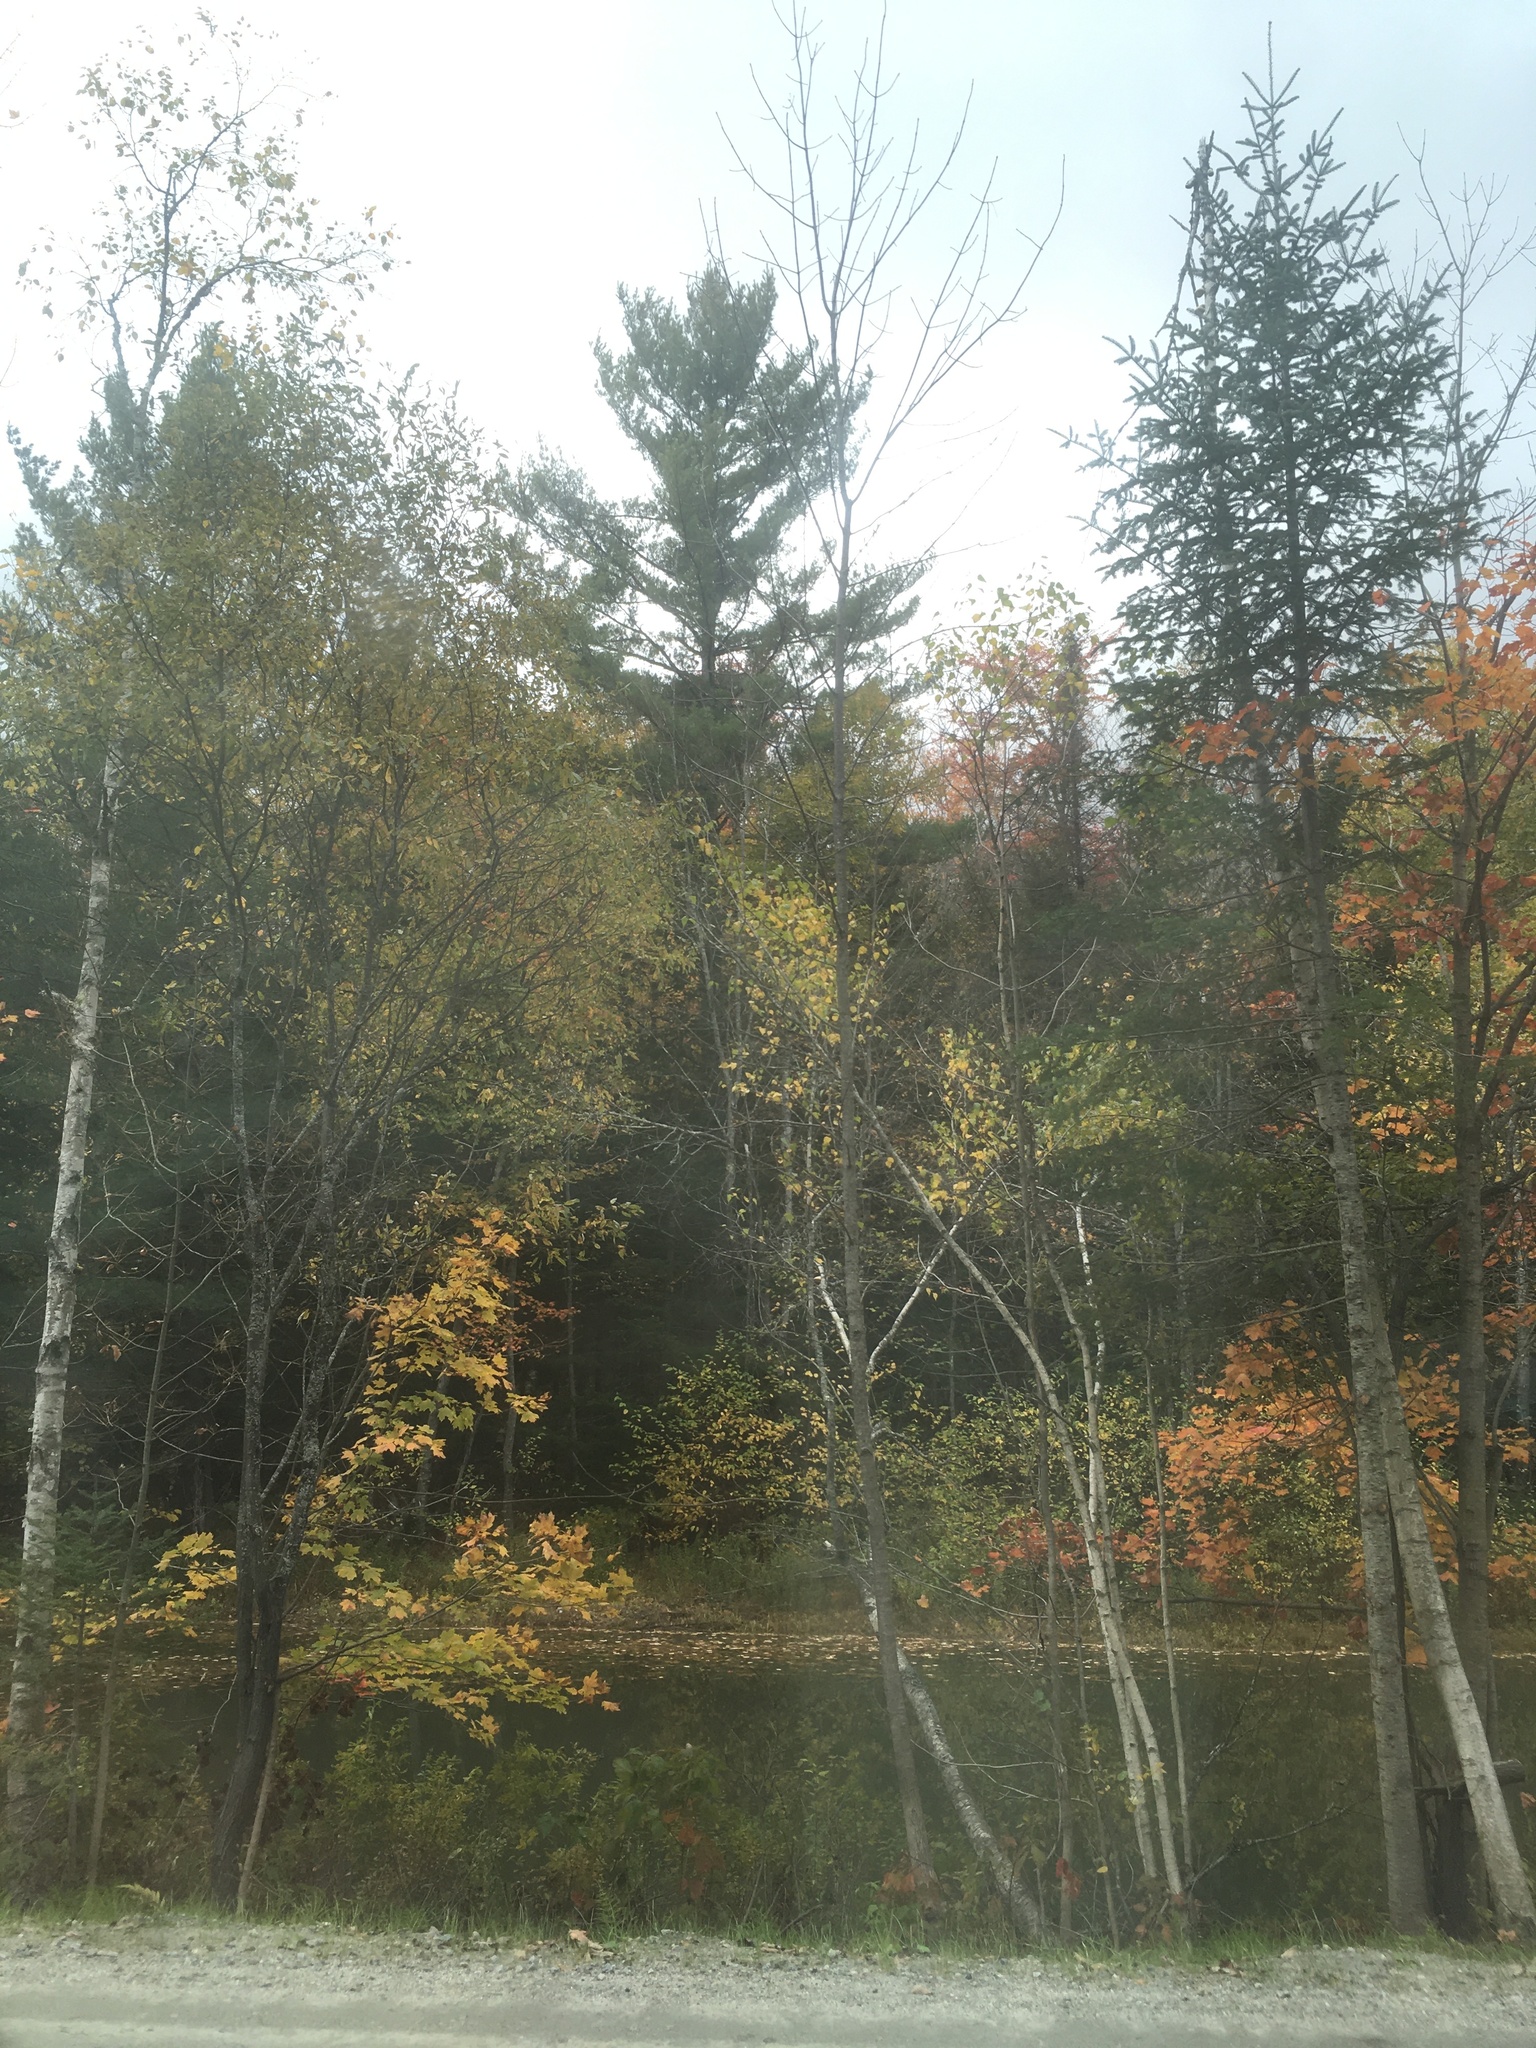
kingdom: Plantae
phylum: Tracheophyta
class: Pinopsida
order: Pinales
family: Pinaceae
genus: Pinus
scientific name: Pinus strobus
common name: Weymouth pine
